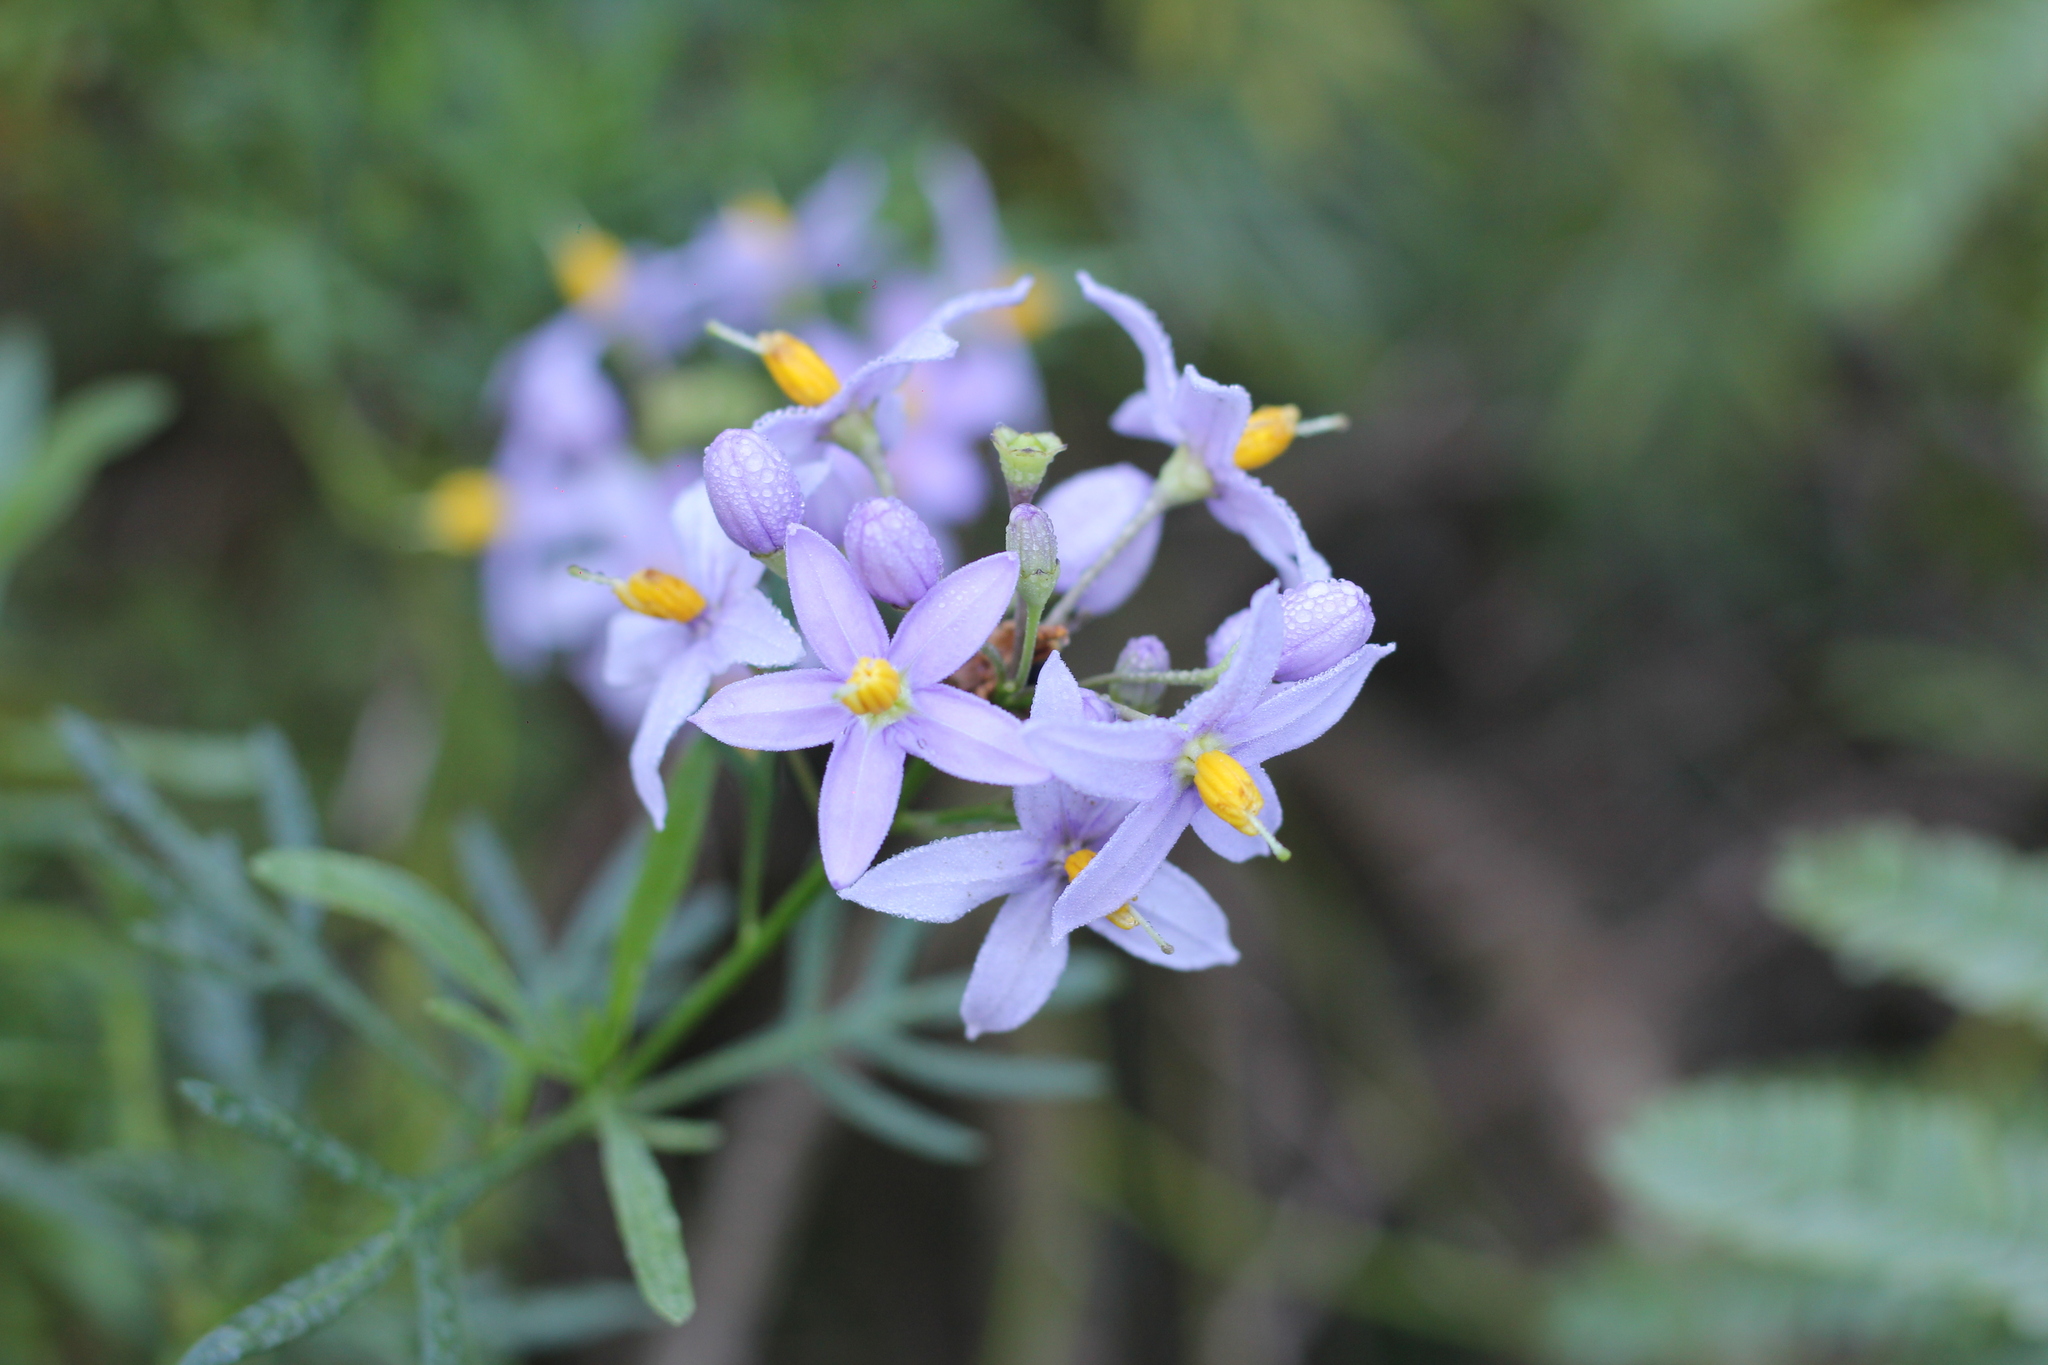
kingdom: Plantae
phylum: Tracheophyta
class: Magnoliopsida
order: Solanales
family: Solanaceae
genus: Solanum
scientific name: Solanum angustifidum
